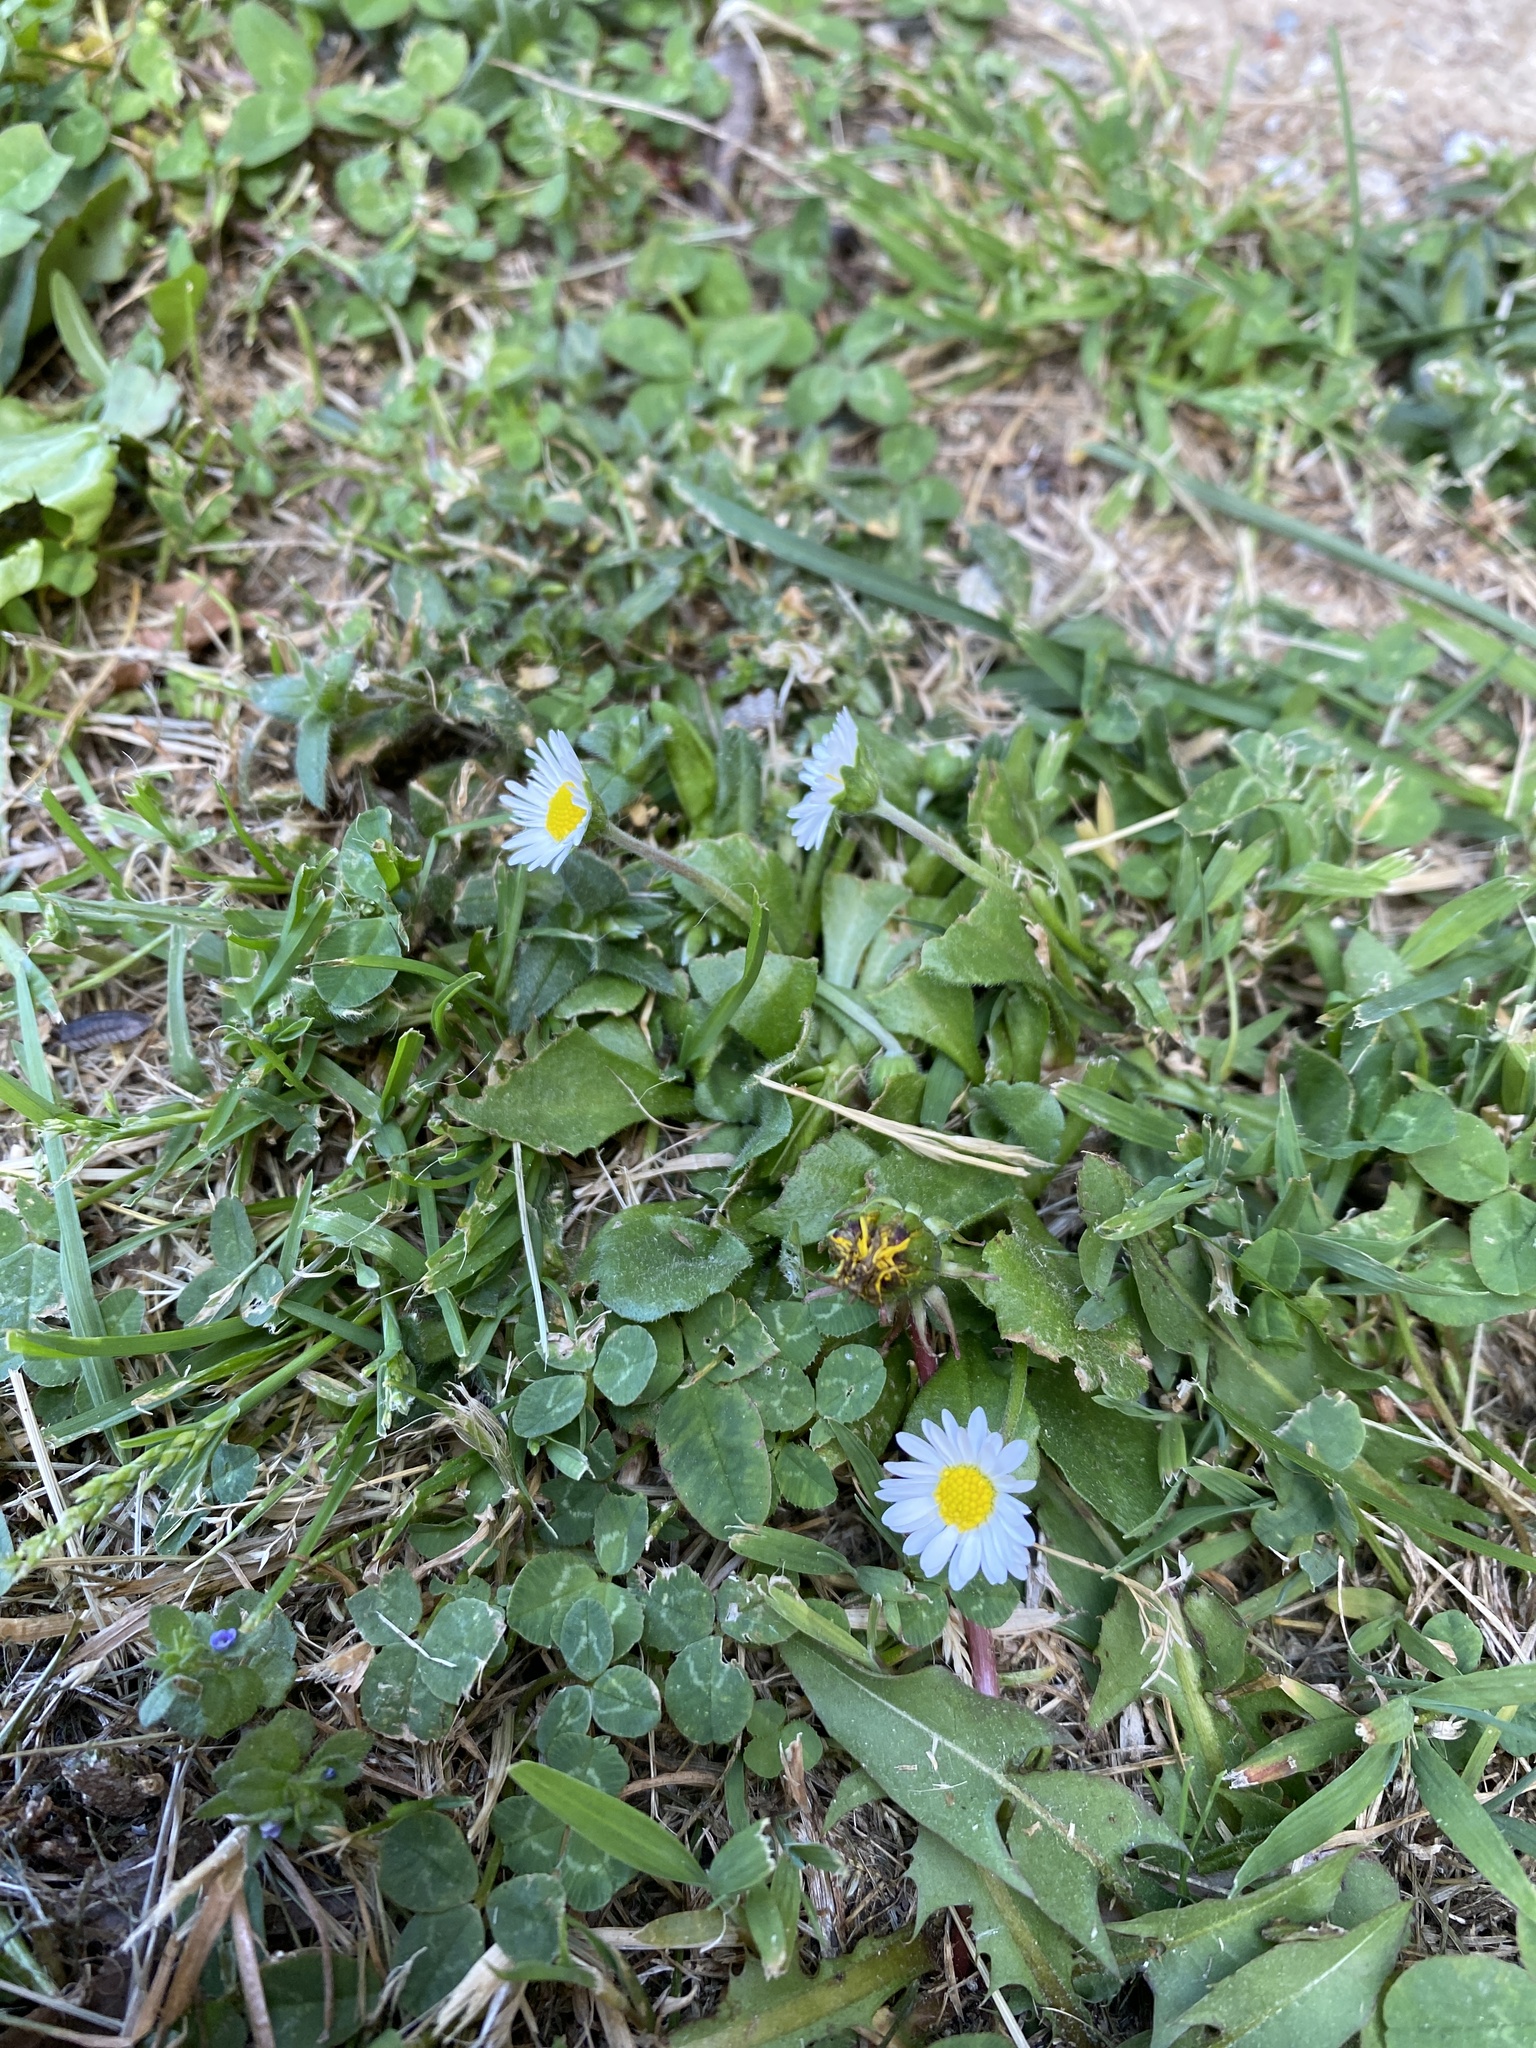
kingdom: Plantae
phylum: Tracheophyta
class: Magnoliopsida
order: Asterales
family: Asteraceae
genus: Bellis
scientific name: Bellis perennis
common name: Lawndaisy
